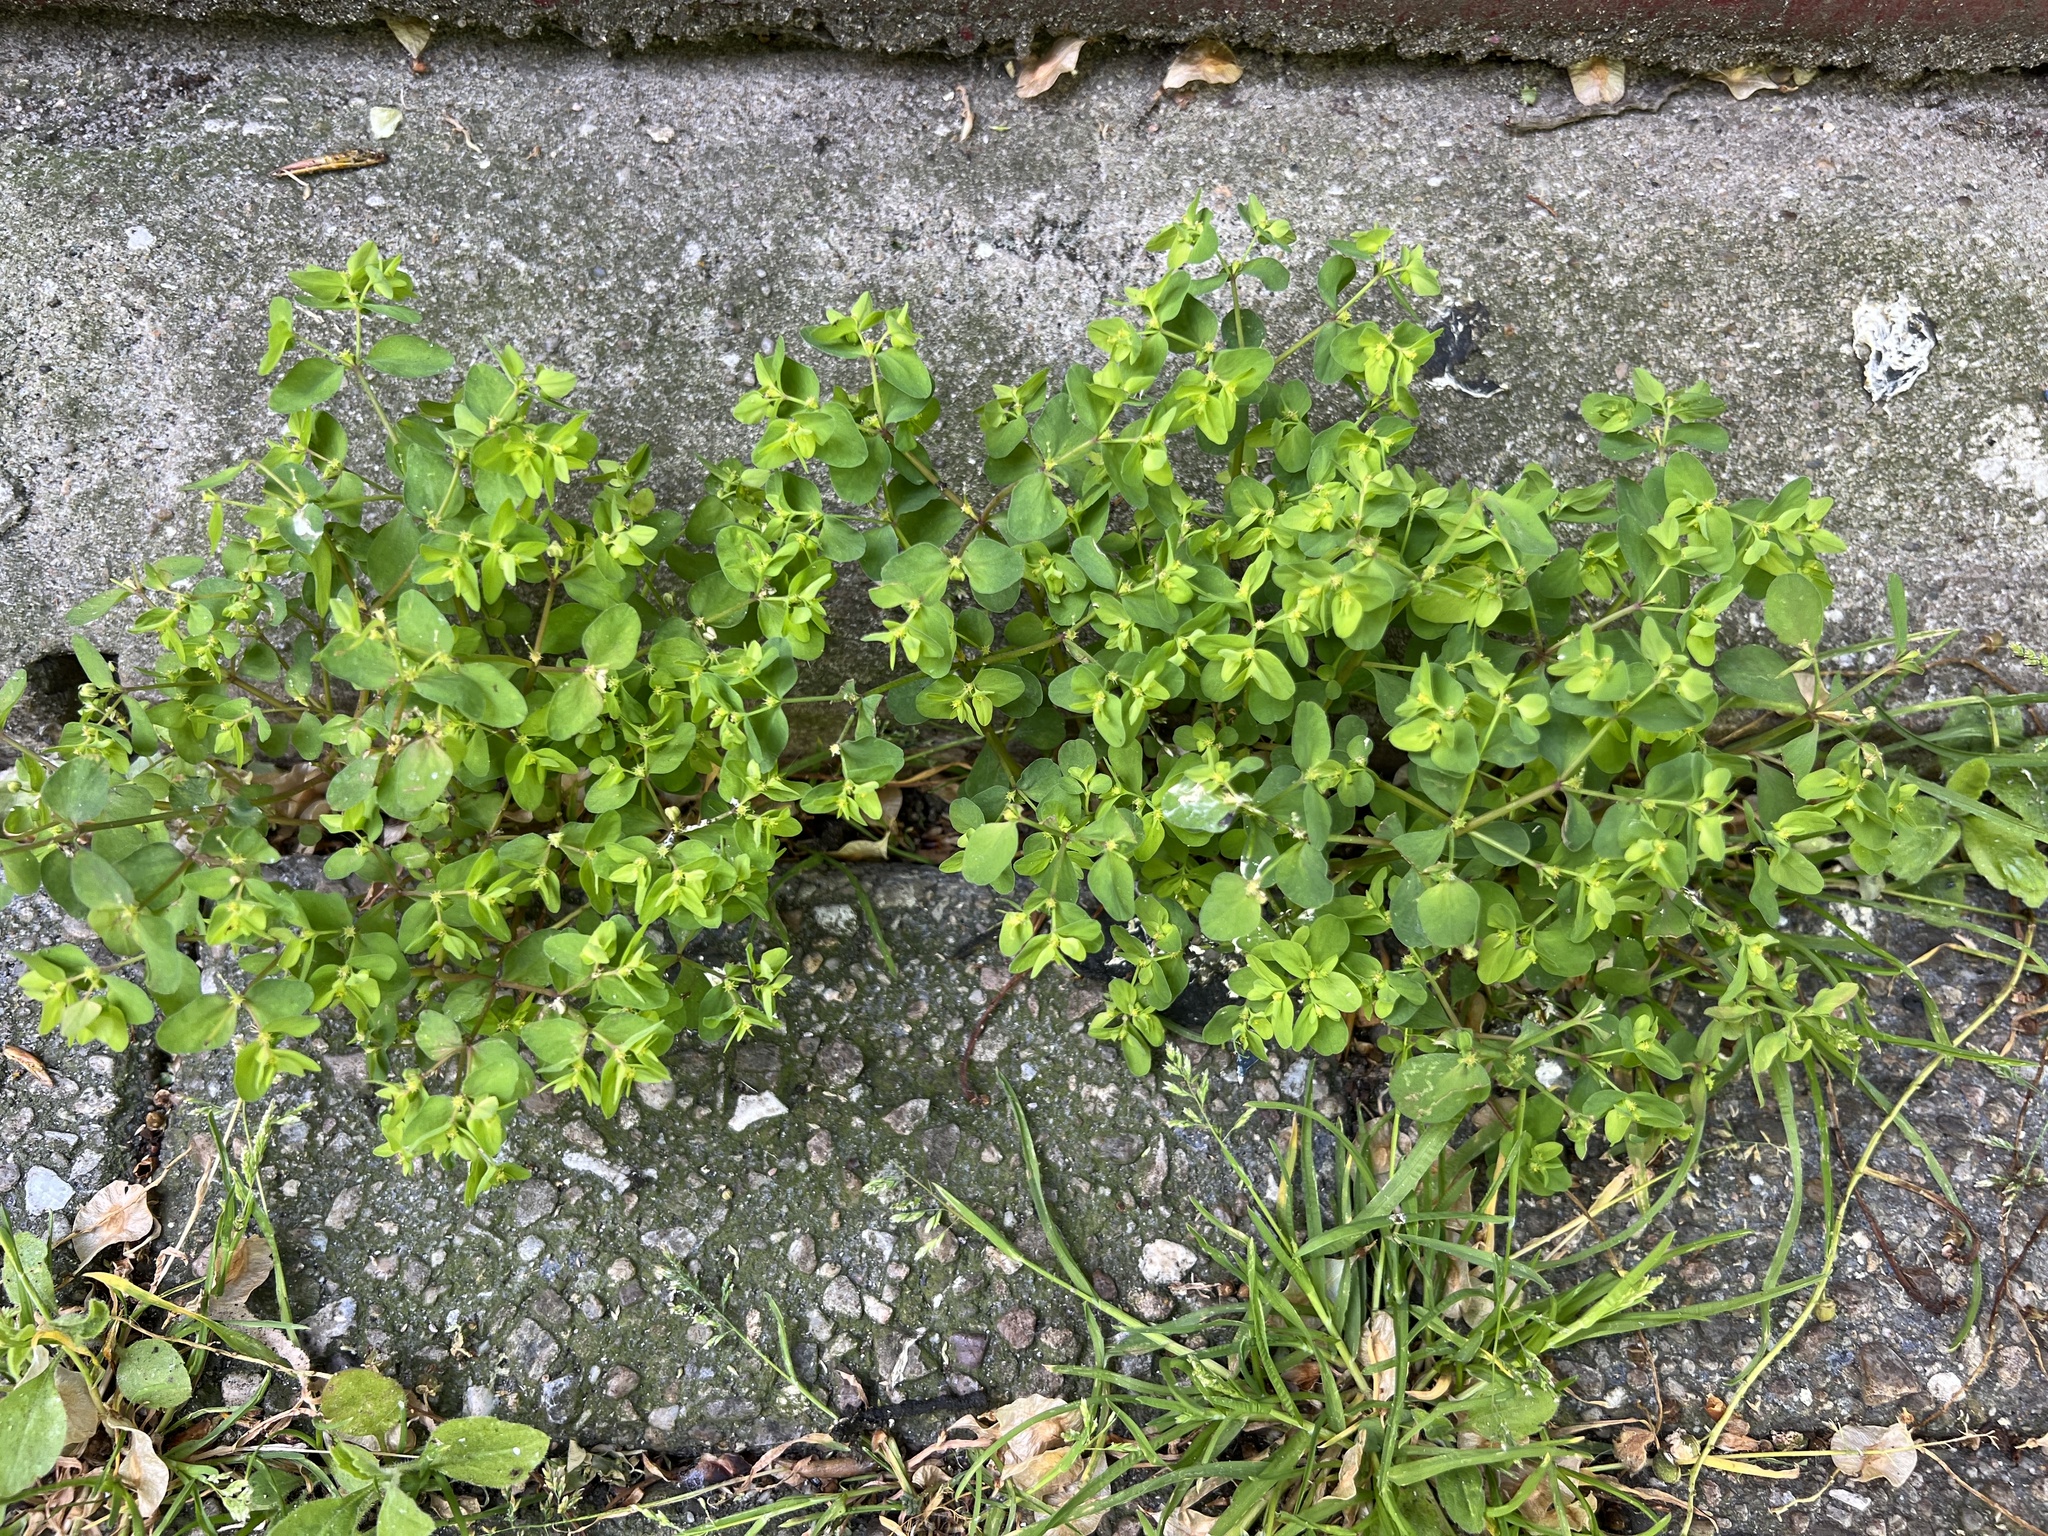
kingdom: Plantae
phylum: Tracheophyta
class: Magnoliopsida
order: Malpighiales
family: Euphorbiaceae
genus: Euphorbia
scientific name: Euphorbia peplus
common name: Petty spurge
